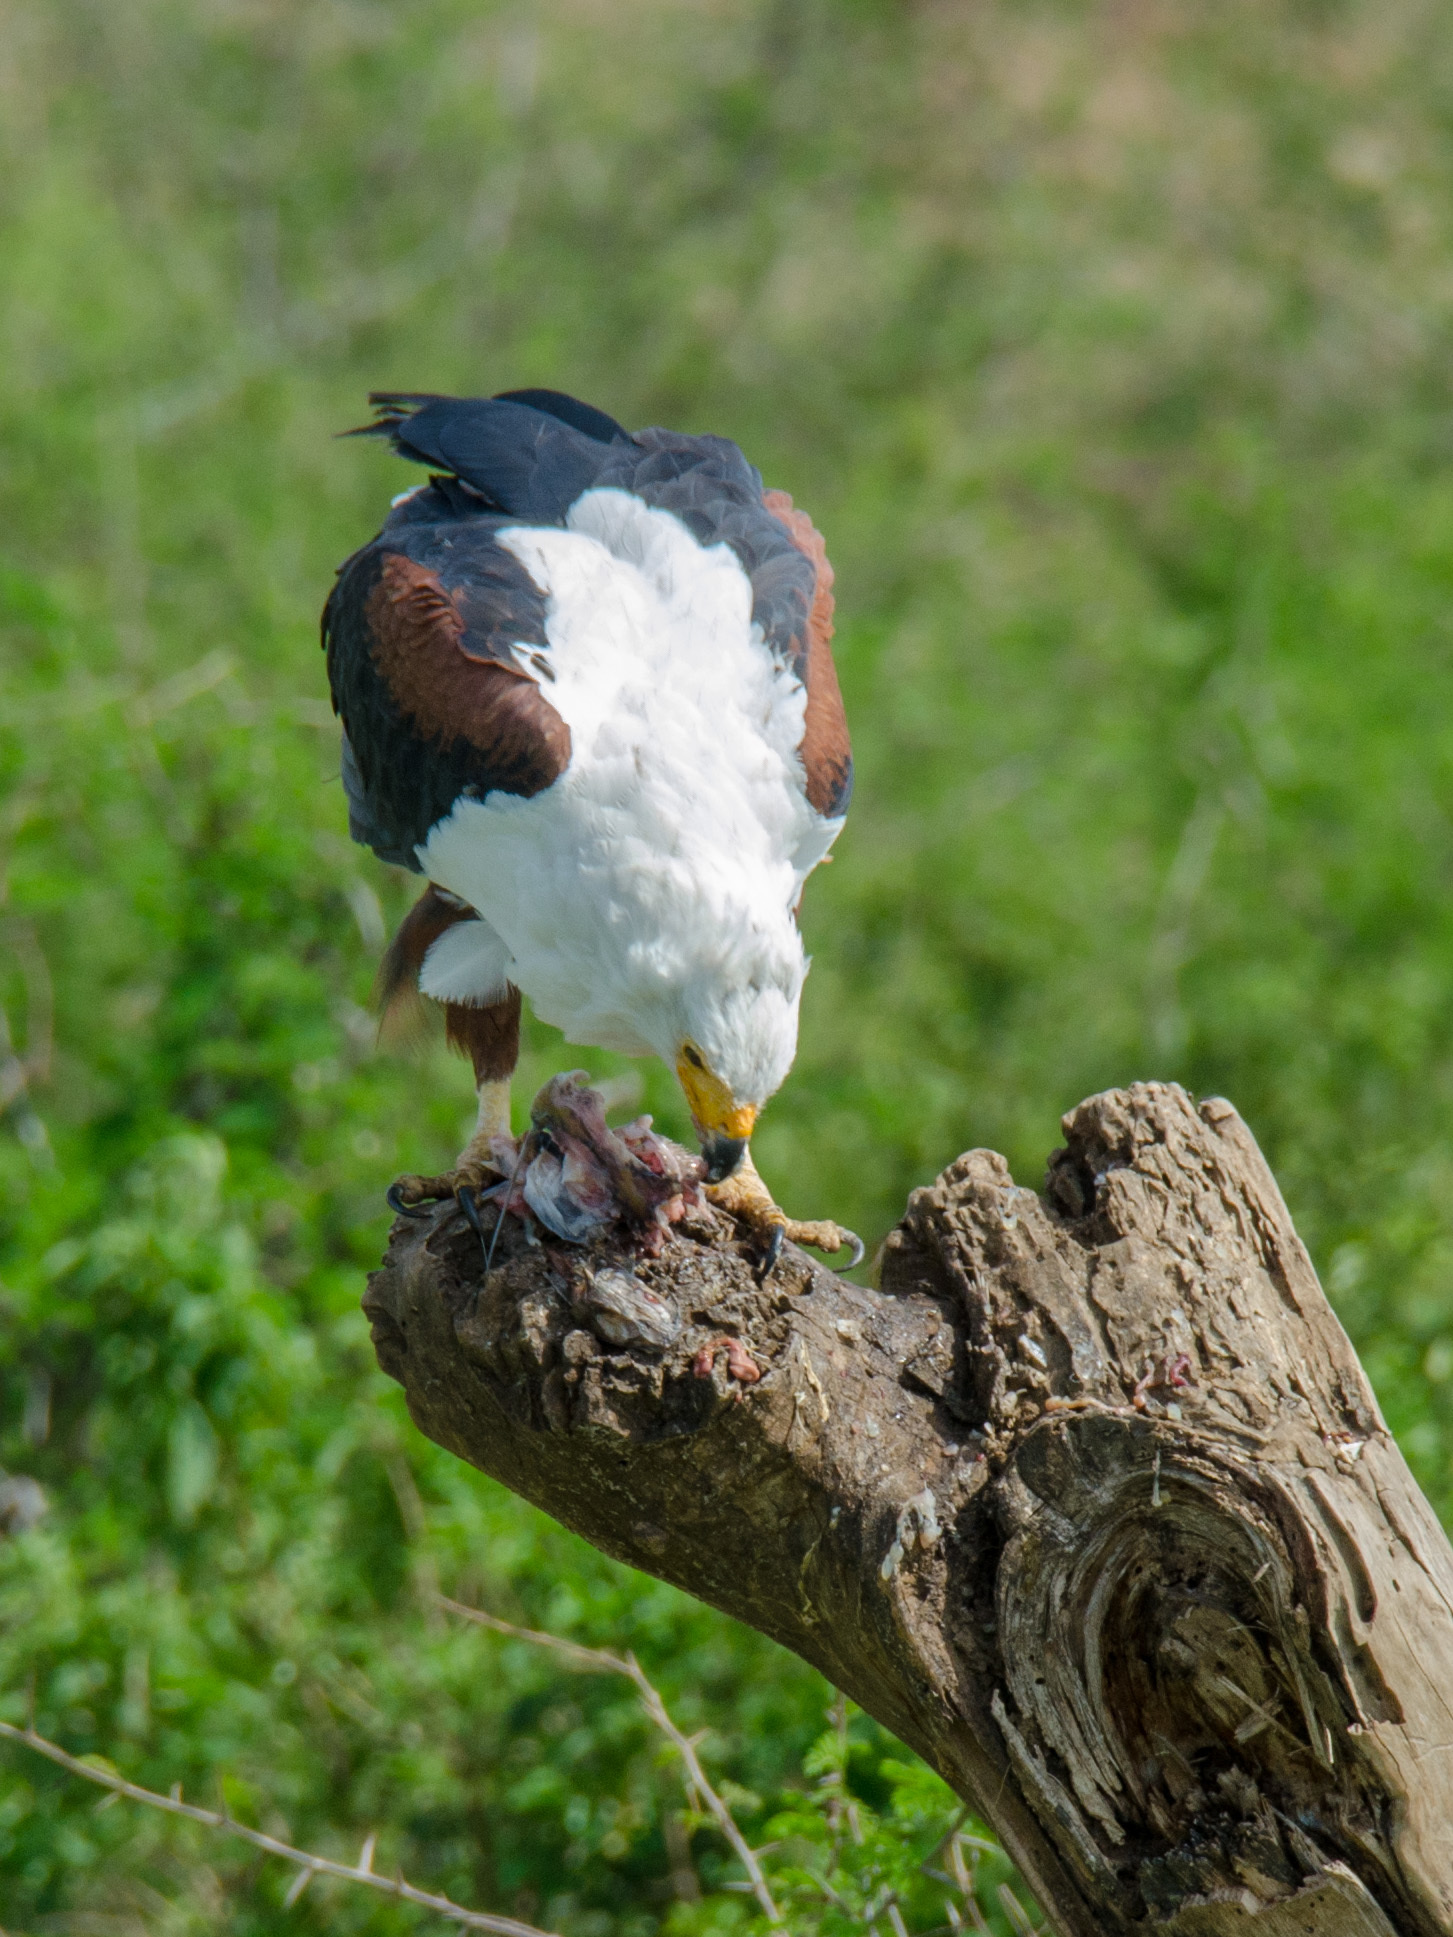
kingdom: Animalia
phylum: Chordata
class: Aves
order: Accipitriformes
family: Accipitridae
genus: Haliaeetus
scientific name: Haliaeetus vocifer
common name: African fish eagle
